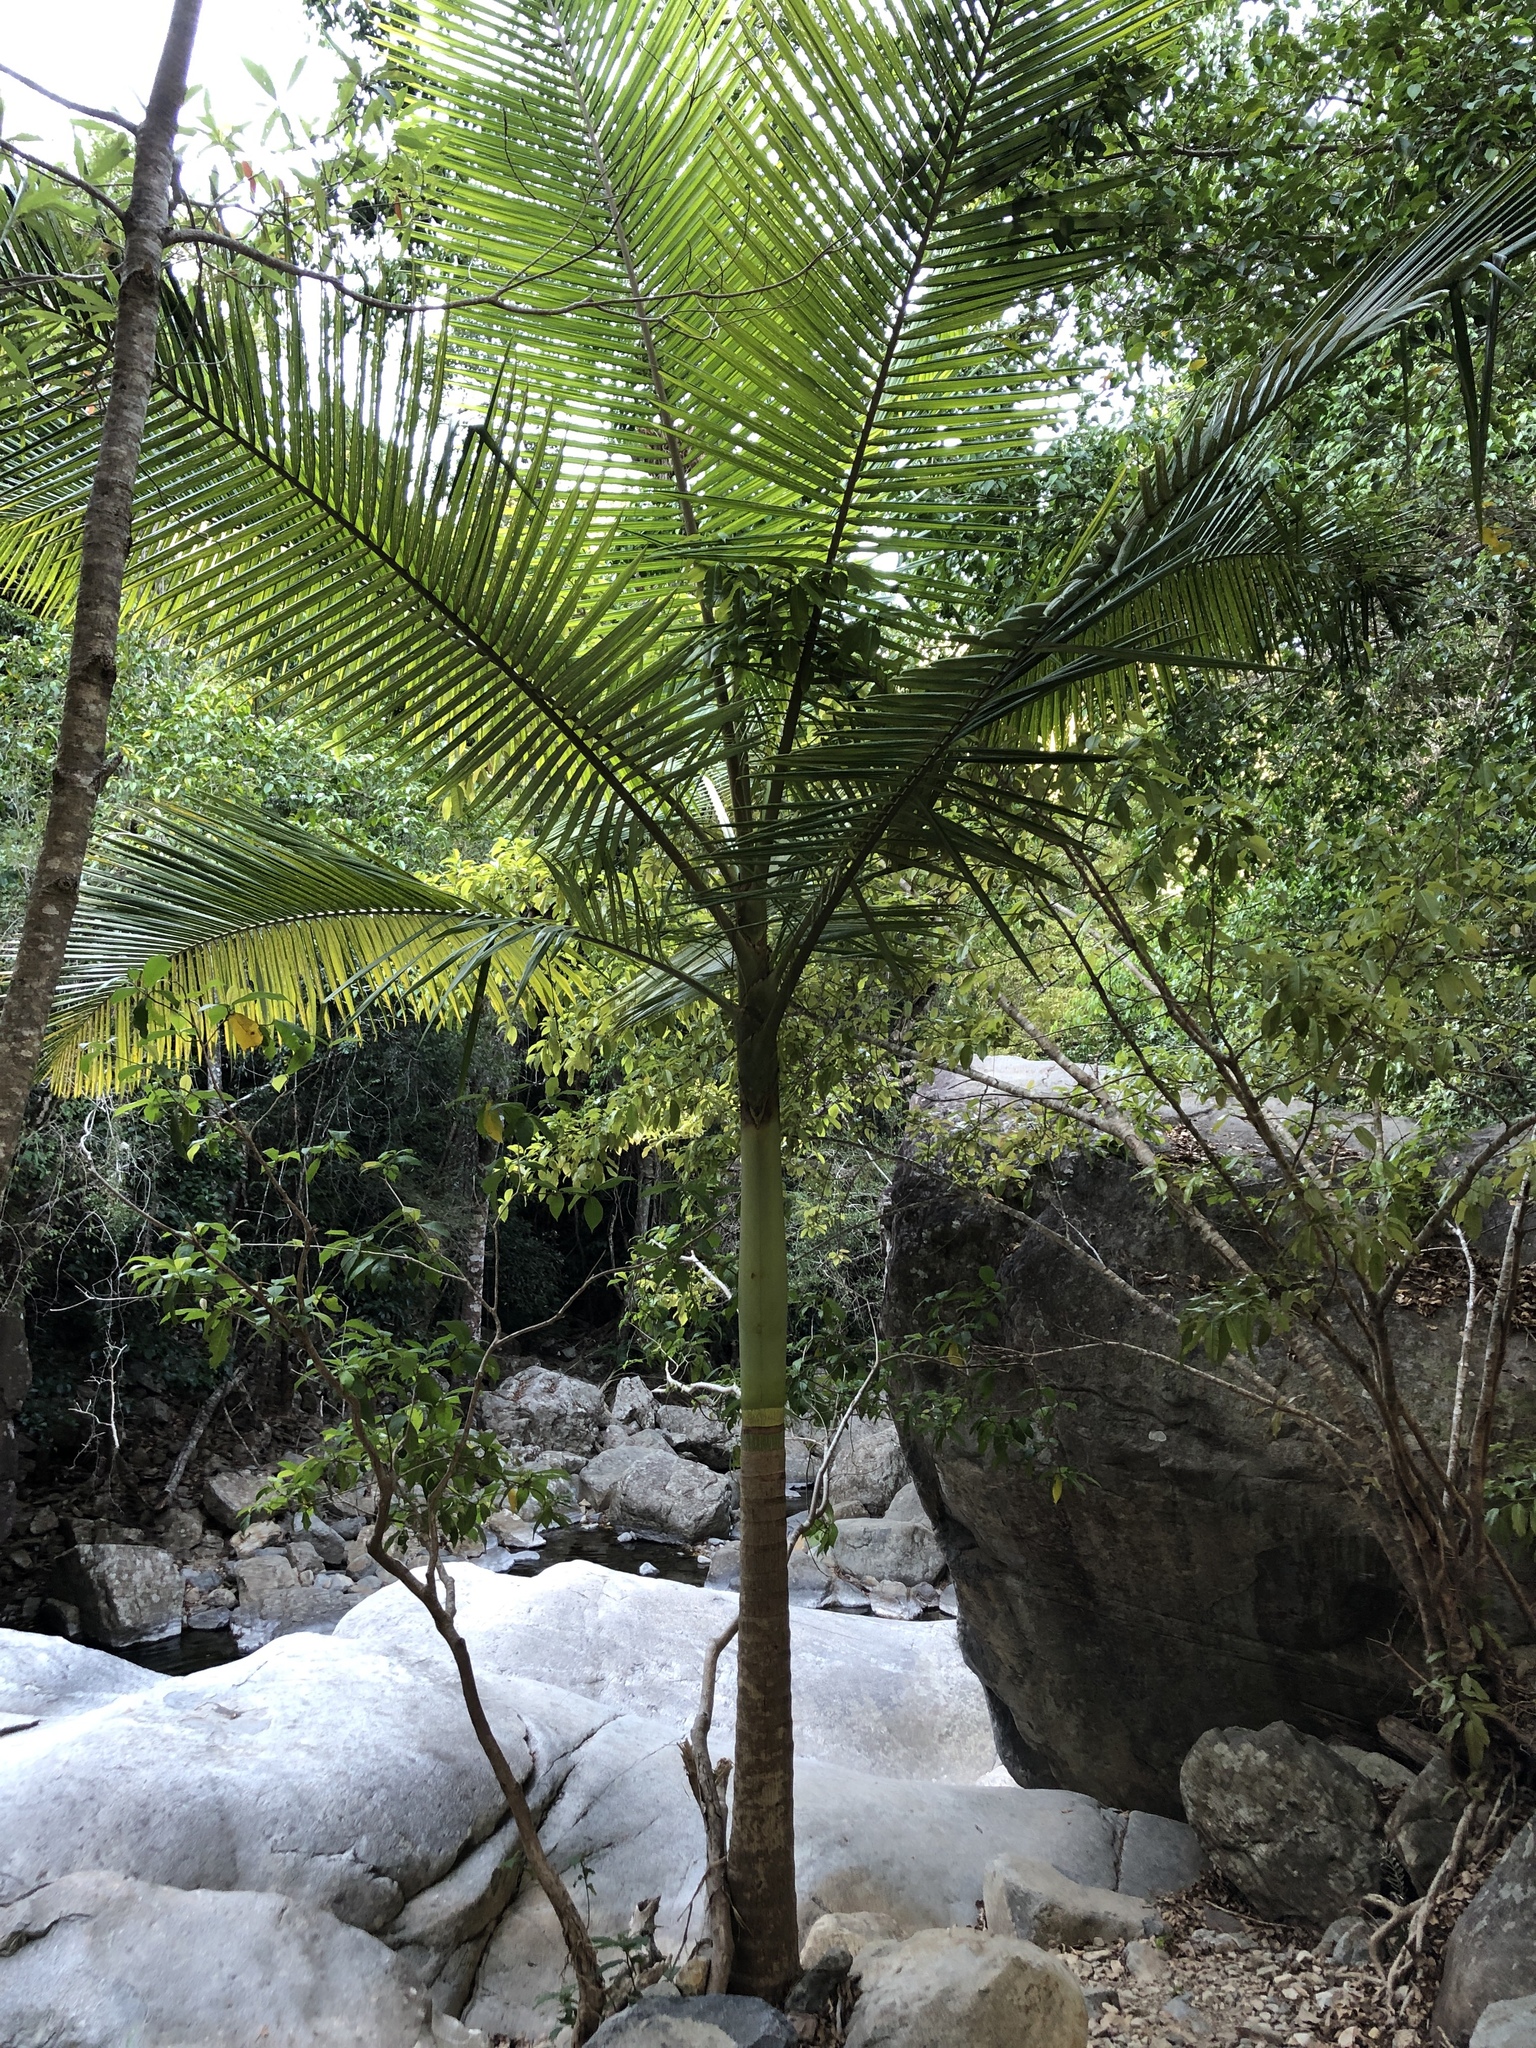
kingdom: Plantae
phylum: Tracheophyta
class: Liliopsida
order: Arecales
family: Arecaceae
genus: Archontophoenix
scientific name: Archontophoenix alexandrae
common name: Alexandra palm
